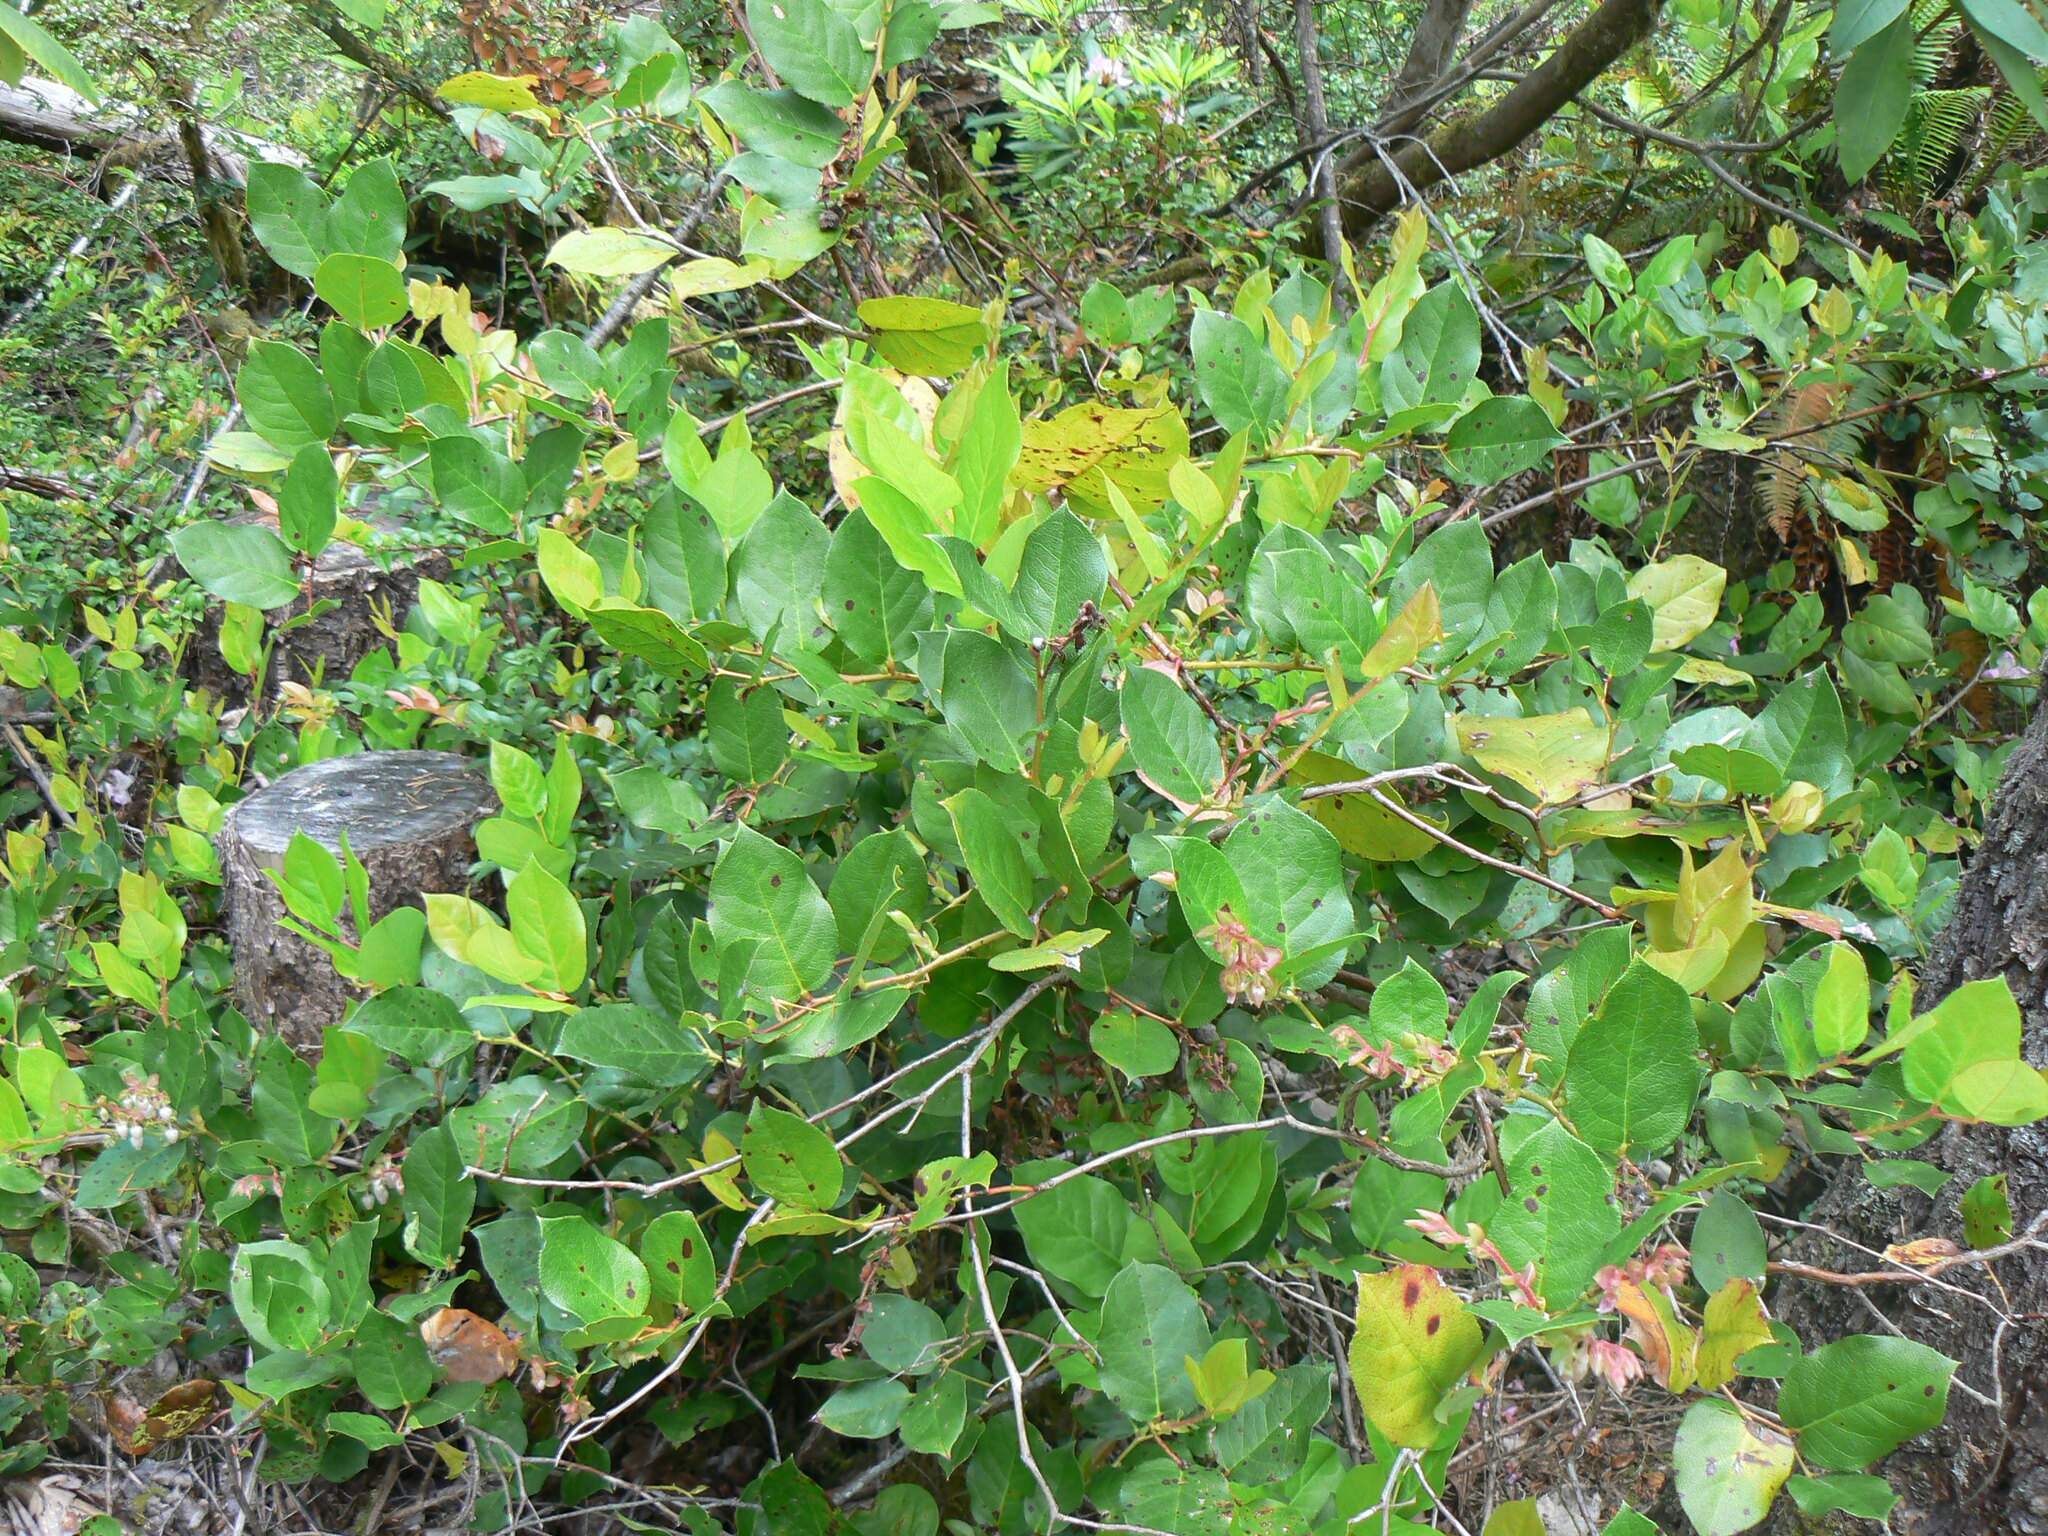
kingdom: Plantae
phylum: Tracheophyta
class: Magnoliopsida
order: Ericales
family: Ericaceae
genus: Gaultheria
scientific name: Gaultheria shallon
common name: Shallon
